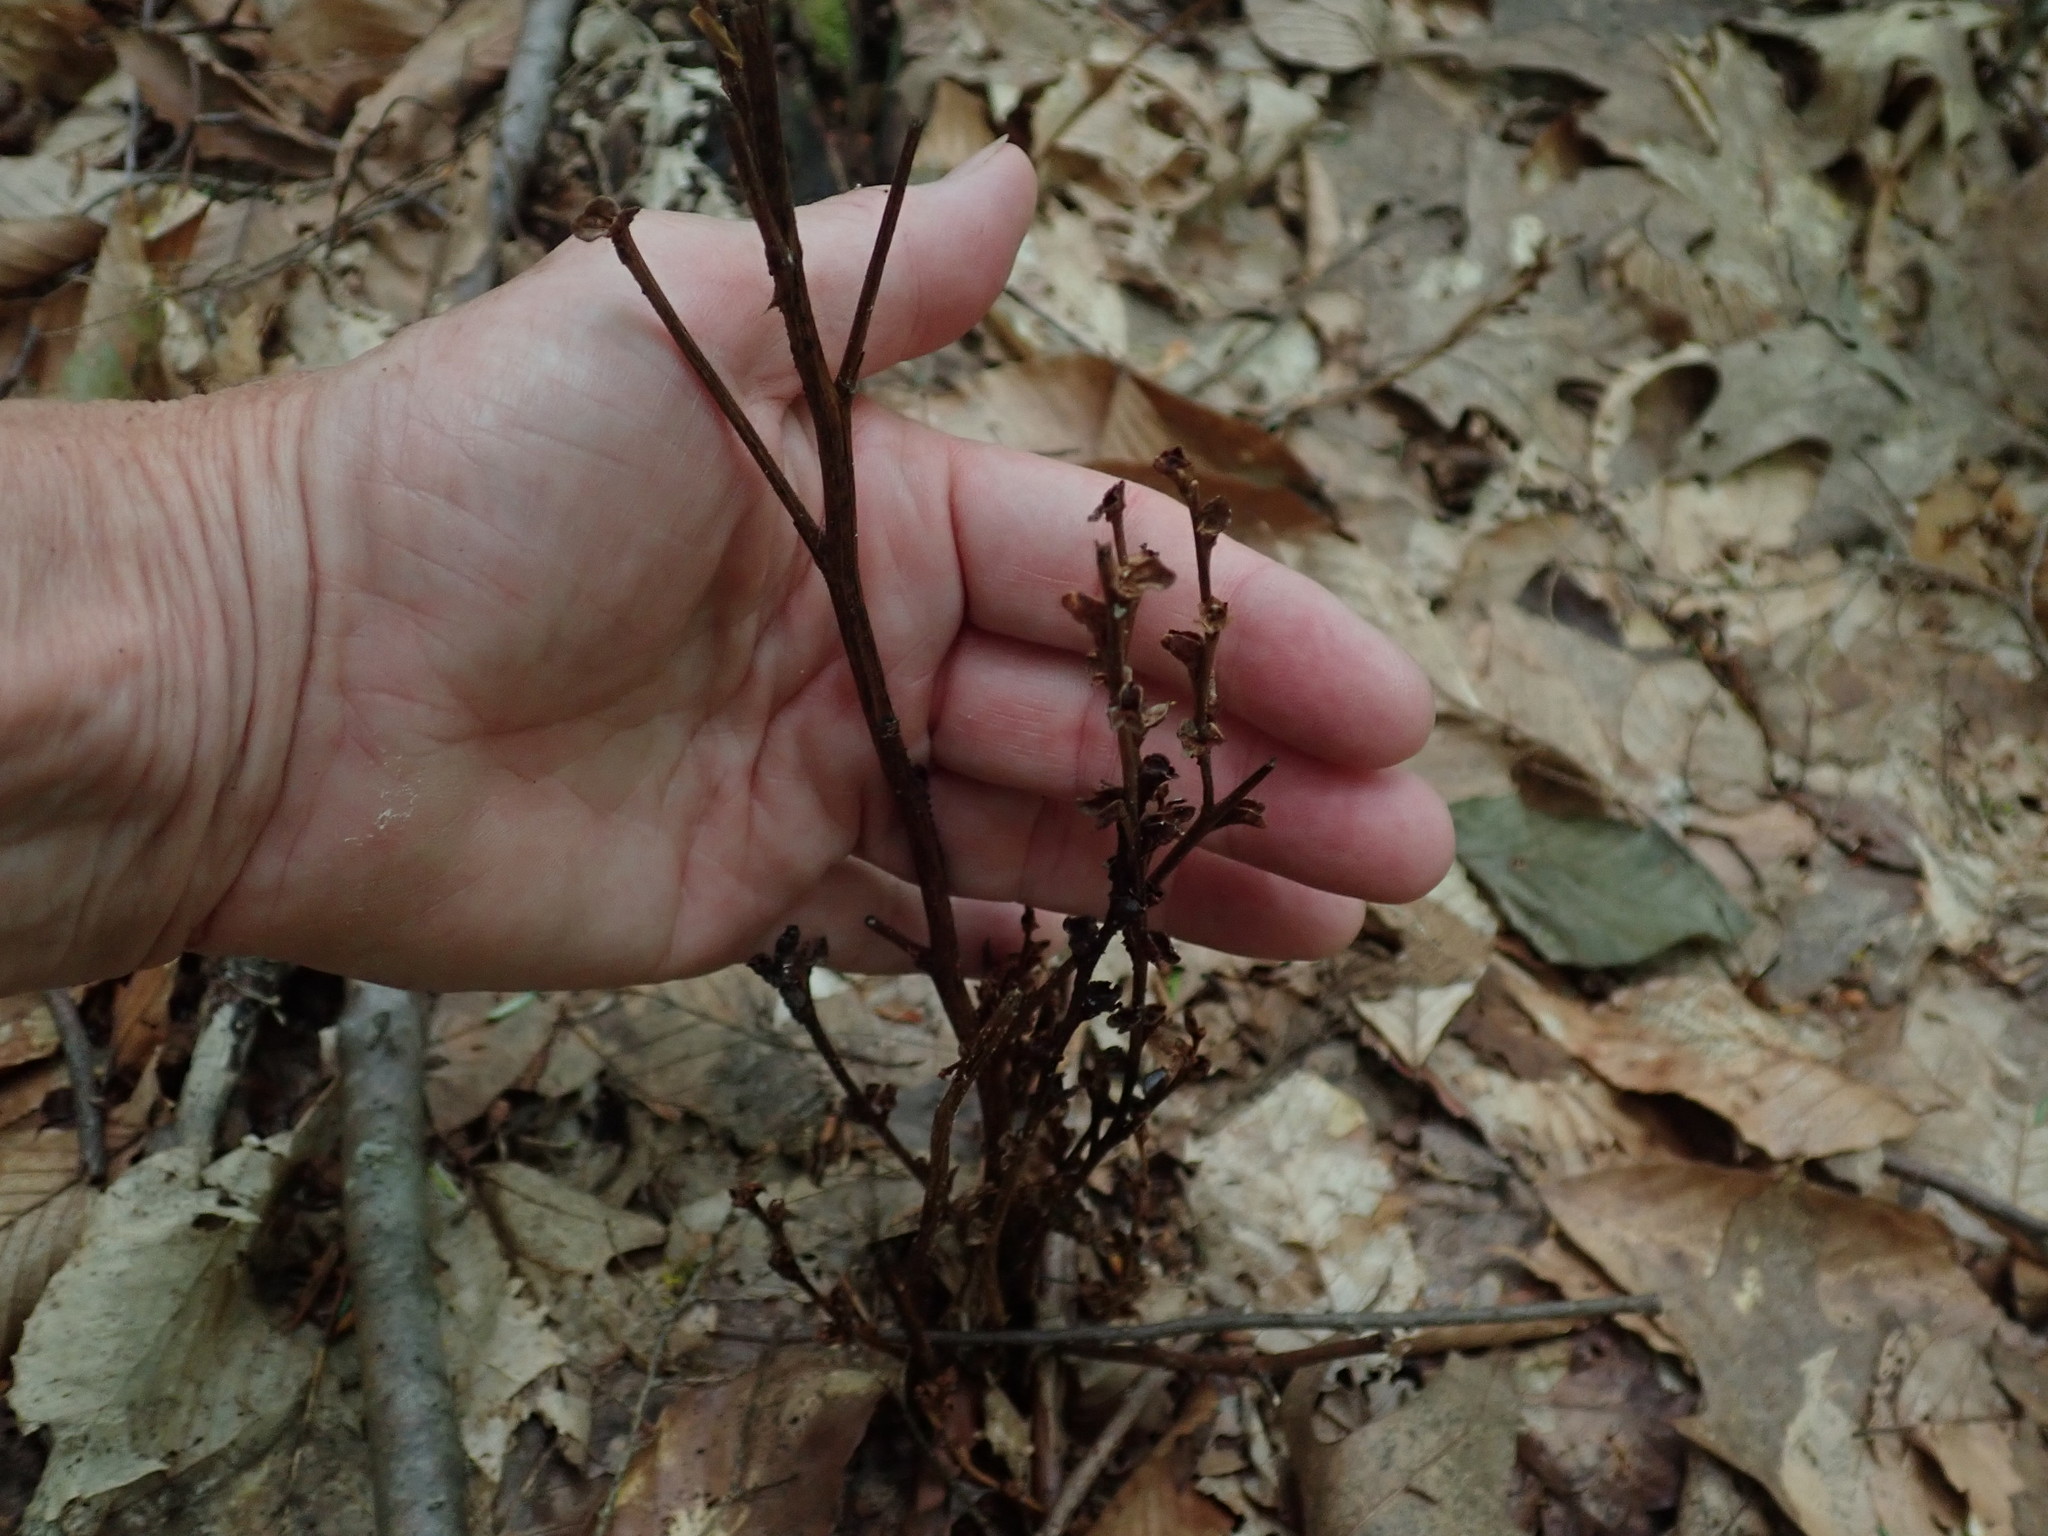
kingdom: Plantae
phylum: Tracheophyta
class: Magnoliopsida
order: Lamiales
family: Orobanchaceae
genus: Epifagus
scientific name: Epifagus virginiana
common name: Beechdrops
